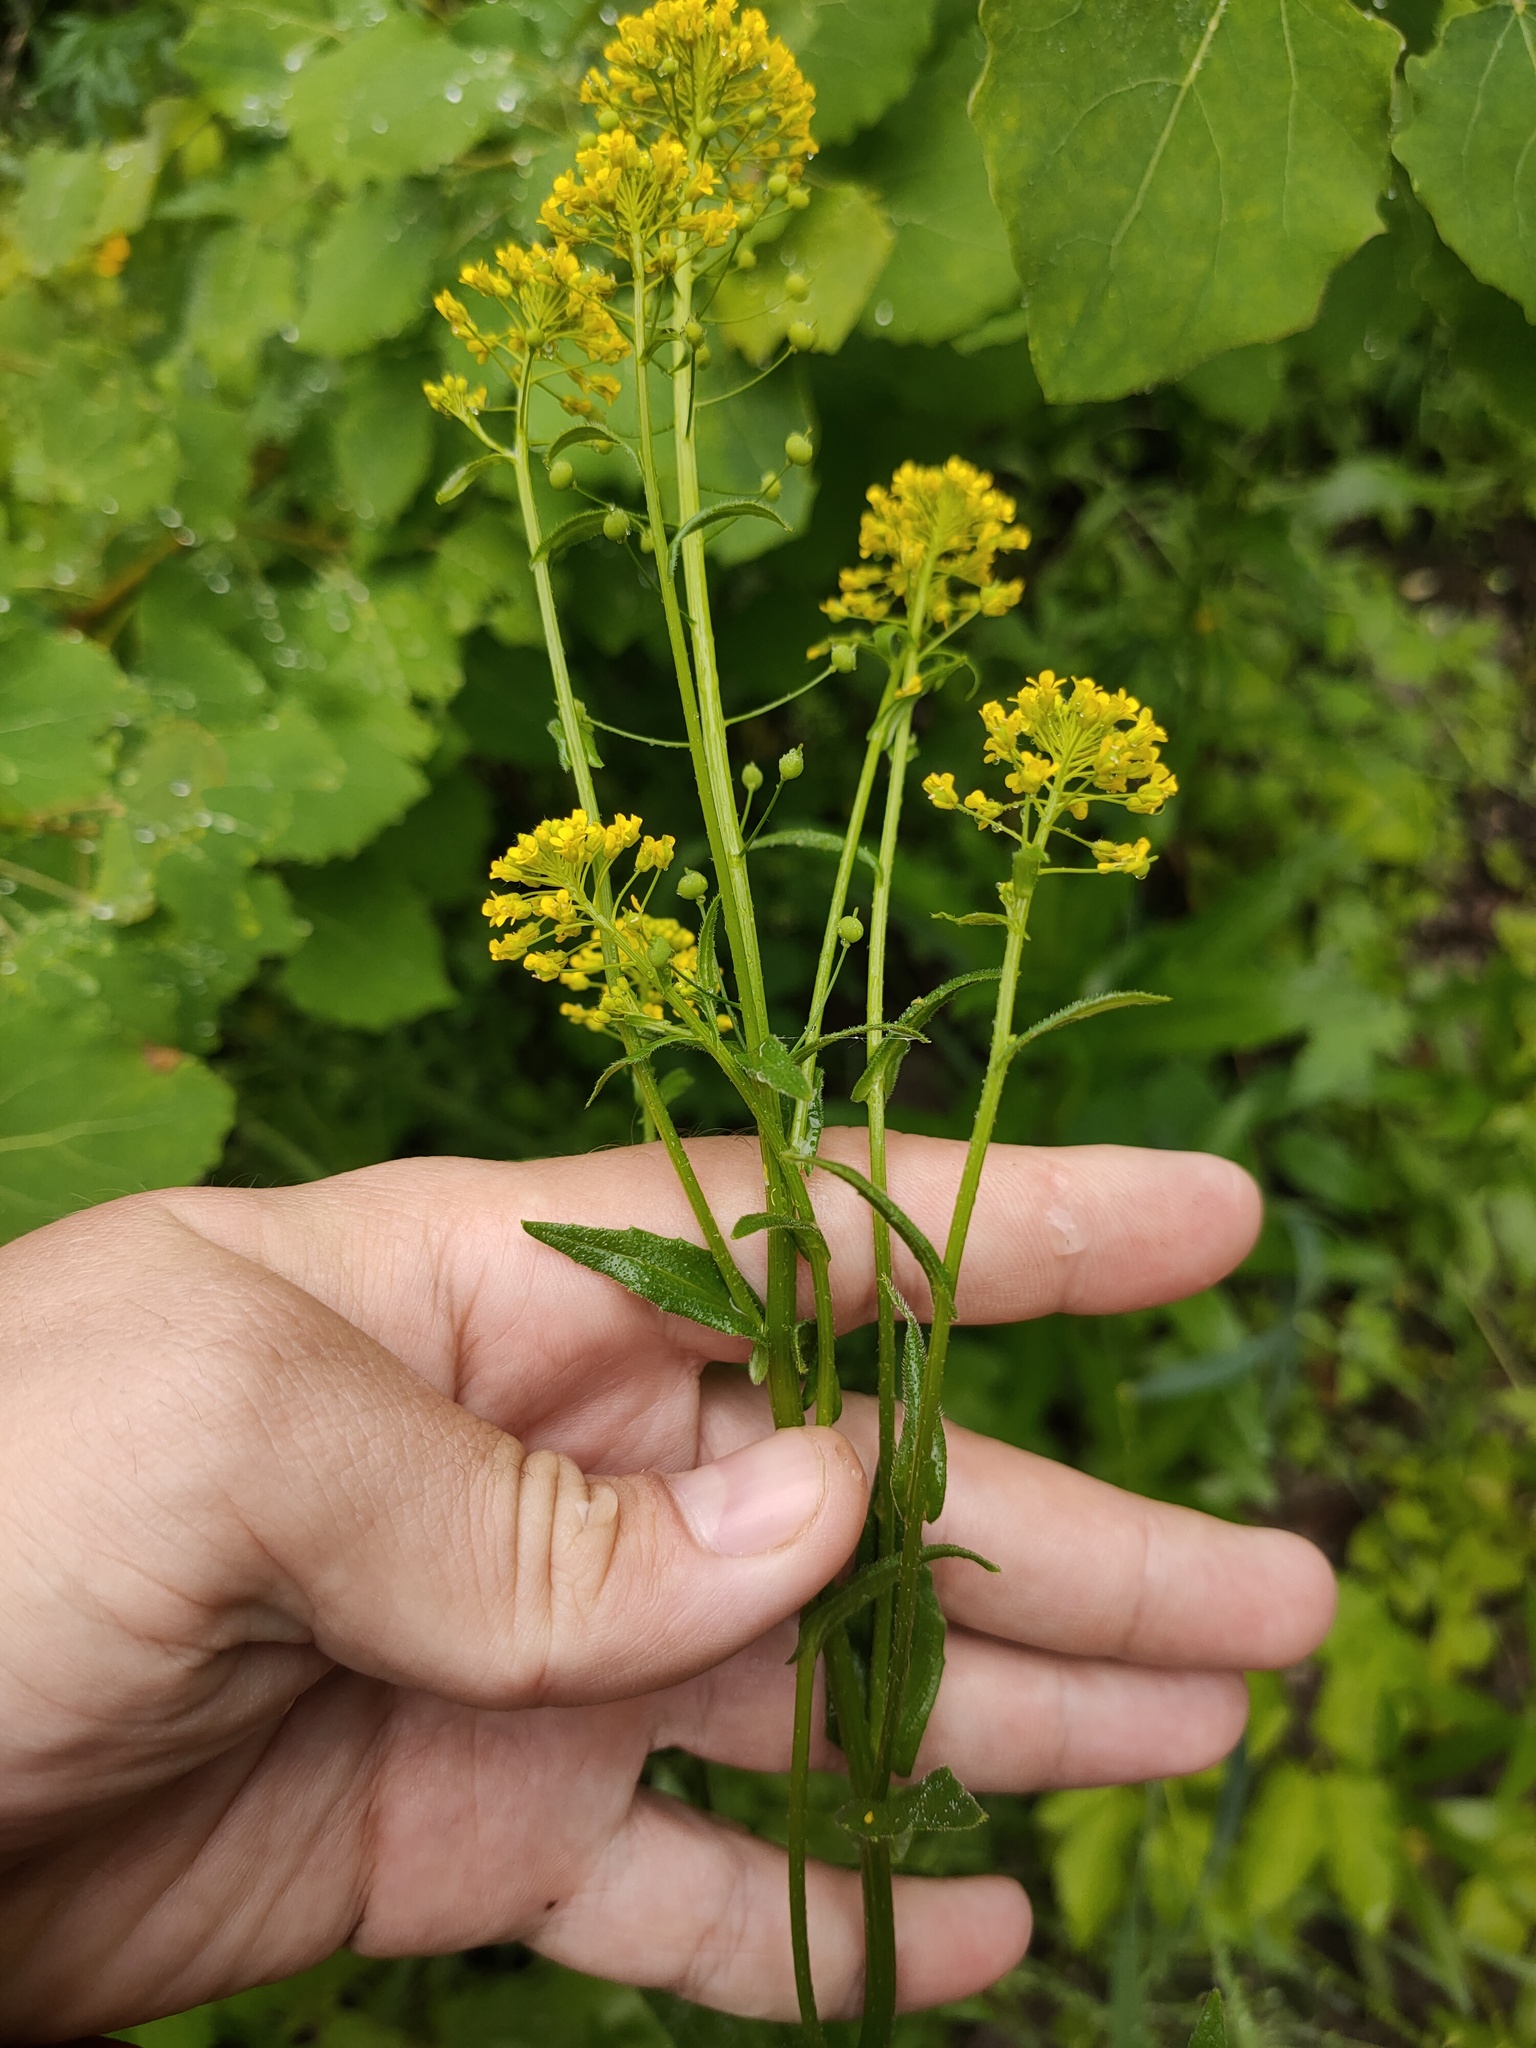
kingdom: Plantae
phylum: Tracheophyta
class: Magnoliopsida
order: Brassicales
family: Brassicaceae
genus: Neslia
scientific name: Neslia paniculata
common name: Ball mustard
